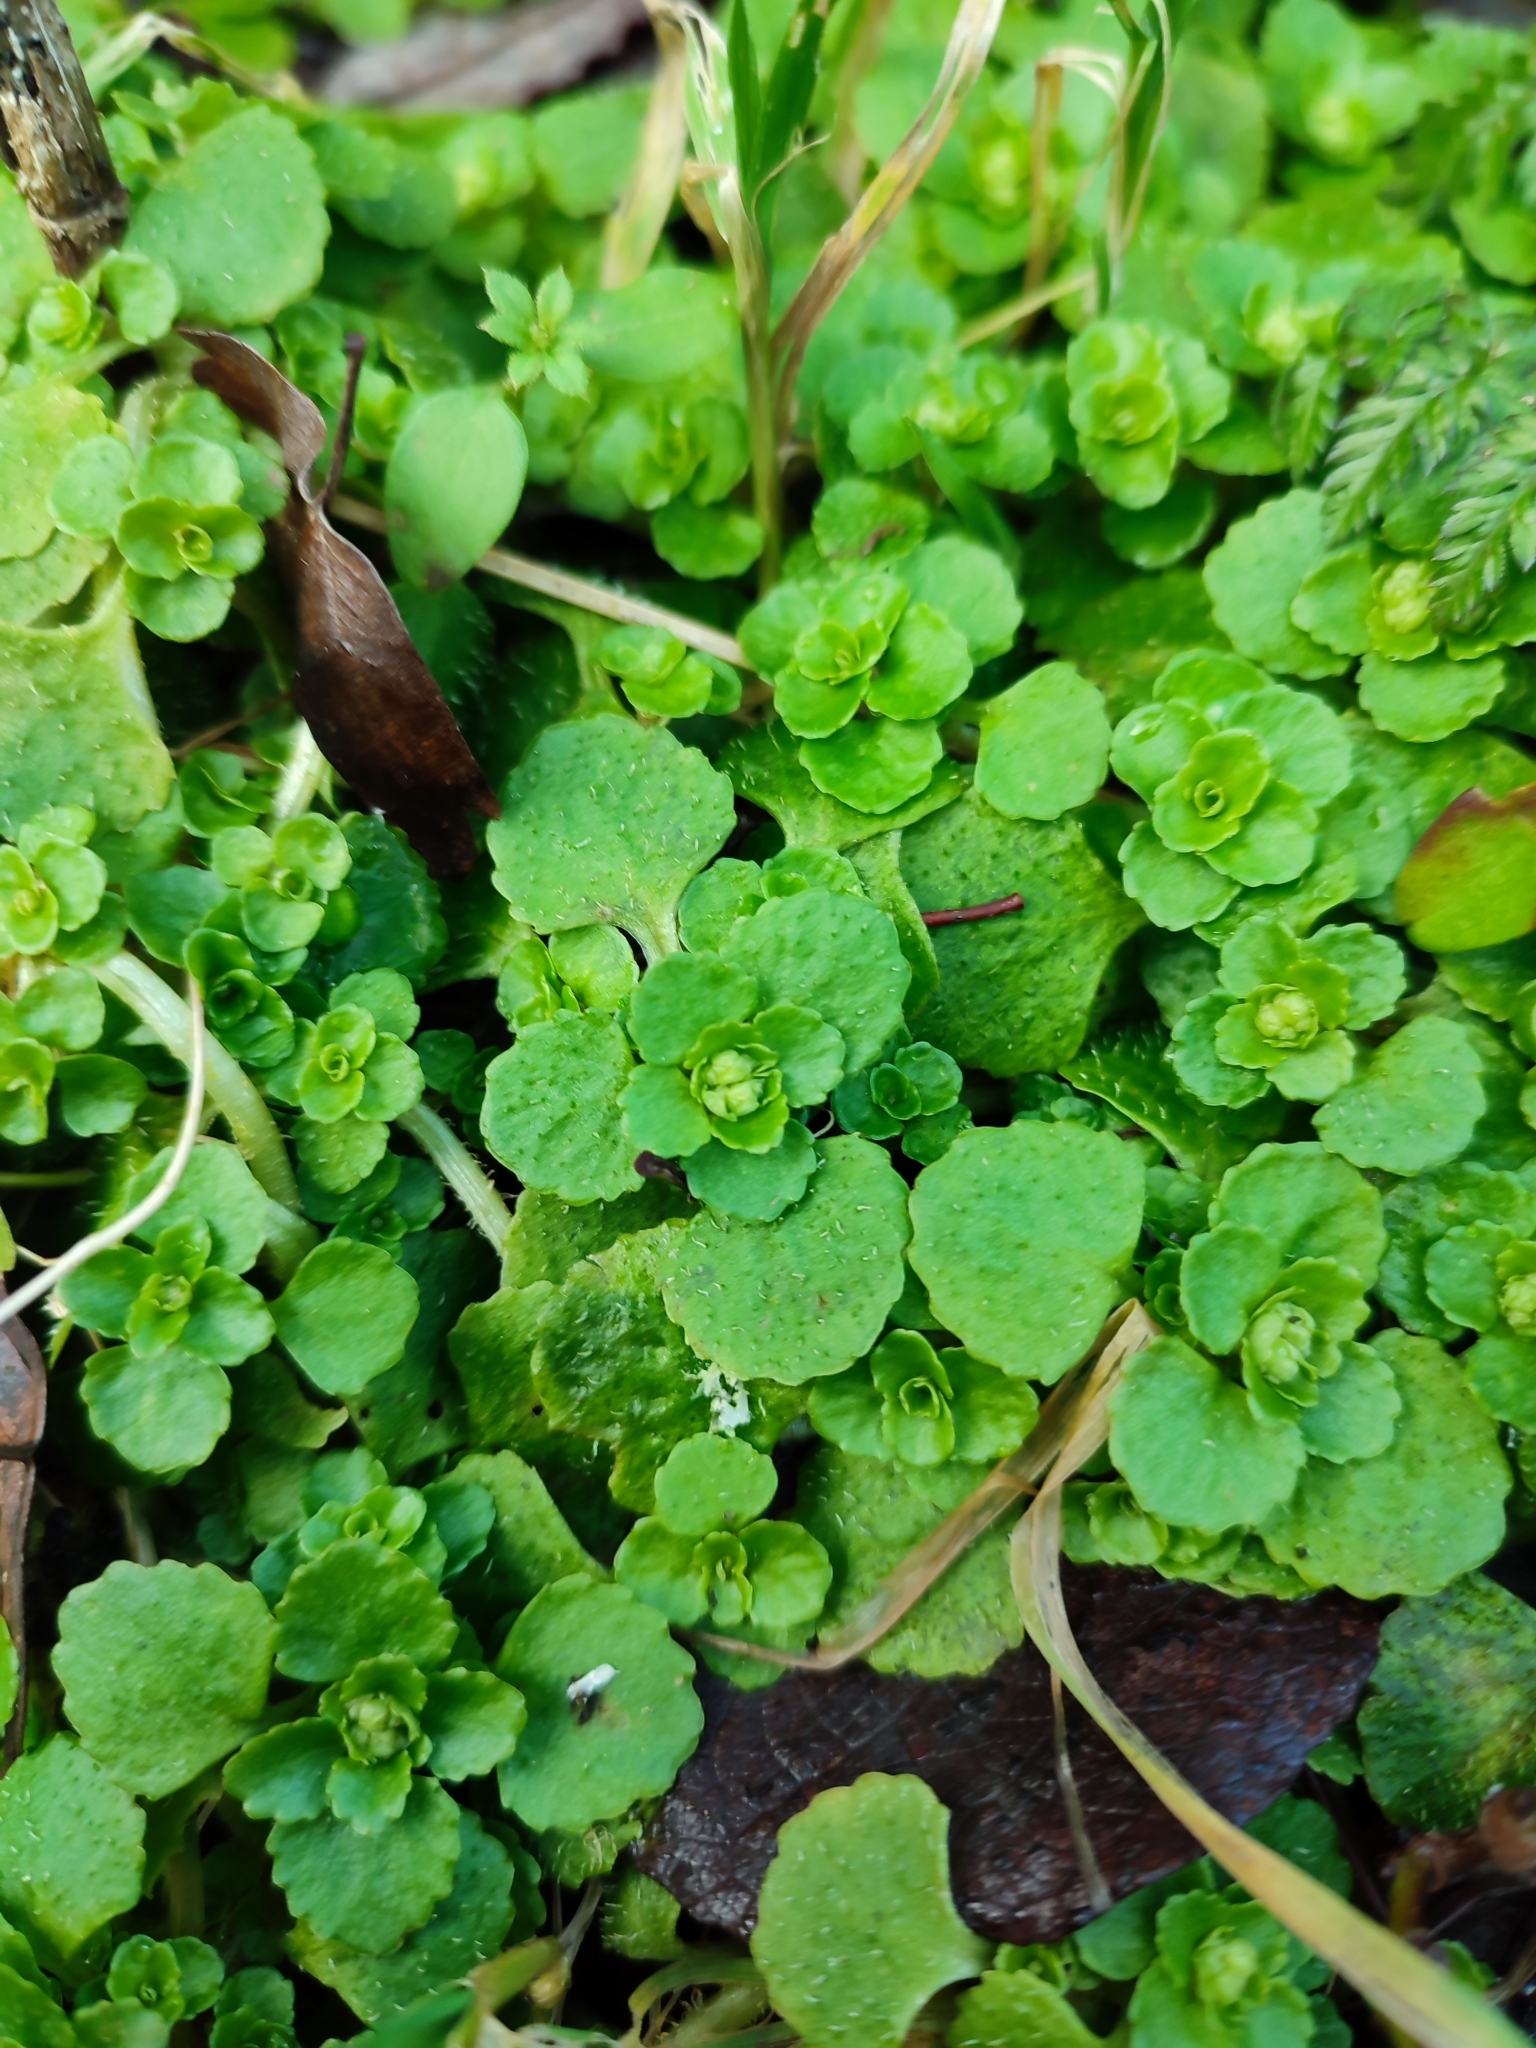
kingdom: Plantae
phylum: Tracheophyta
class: Magnoliopsida
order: Saxifragales
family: Saxifragaceae
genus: Chrysosplenium
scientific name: Chrysosplenium oppositifolium
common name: Opposite-leaved golden-saxifrage
